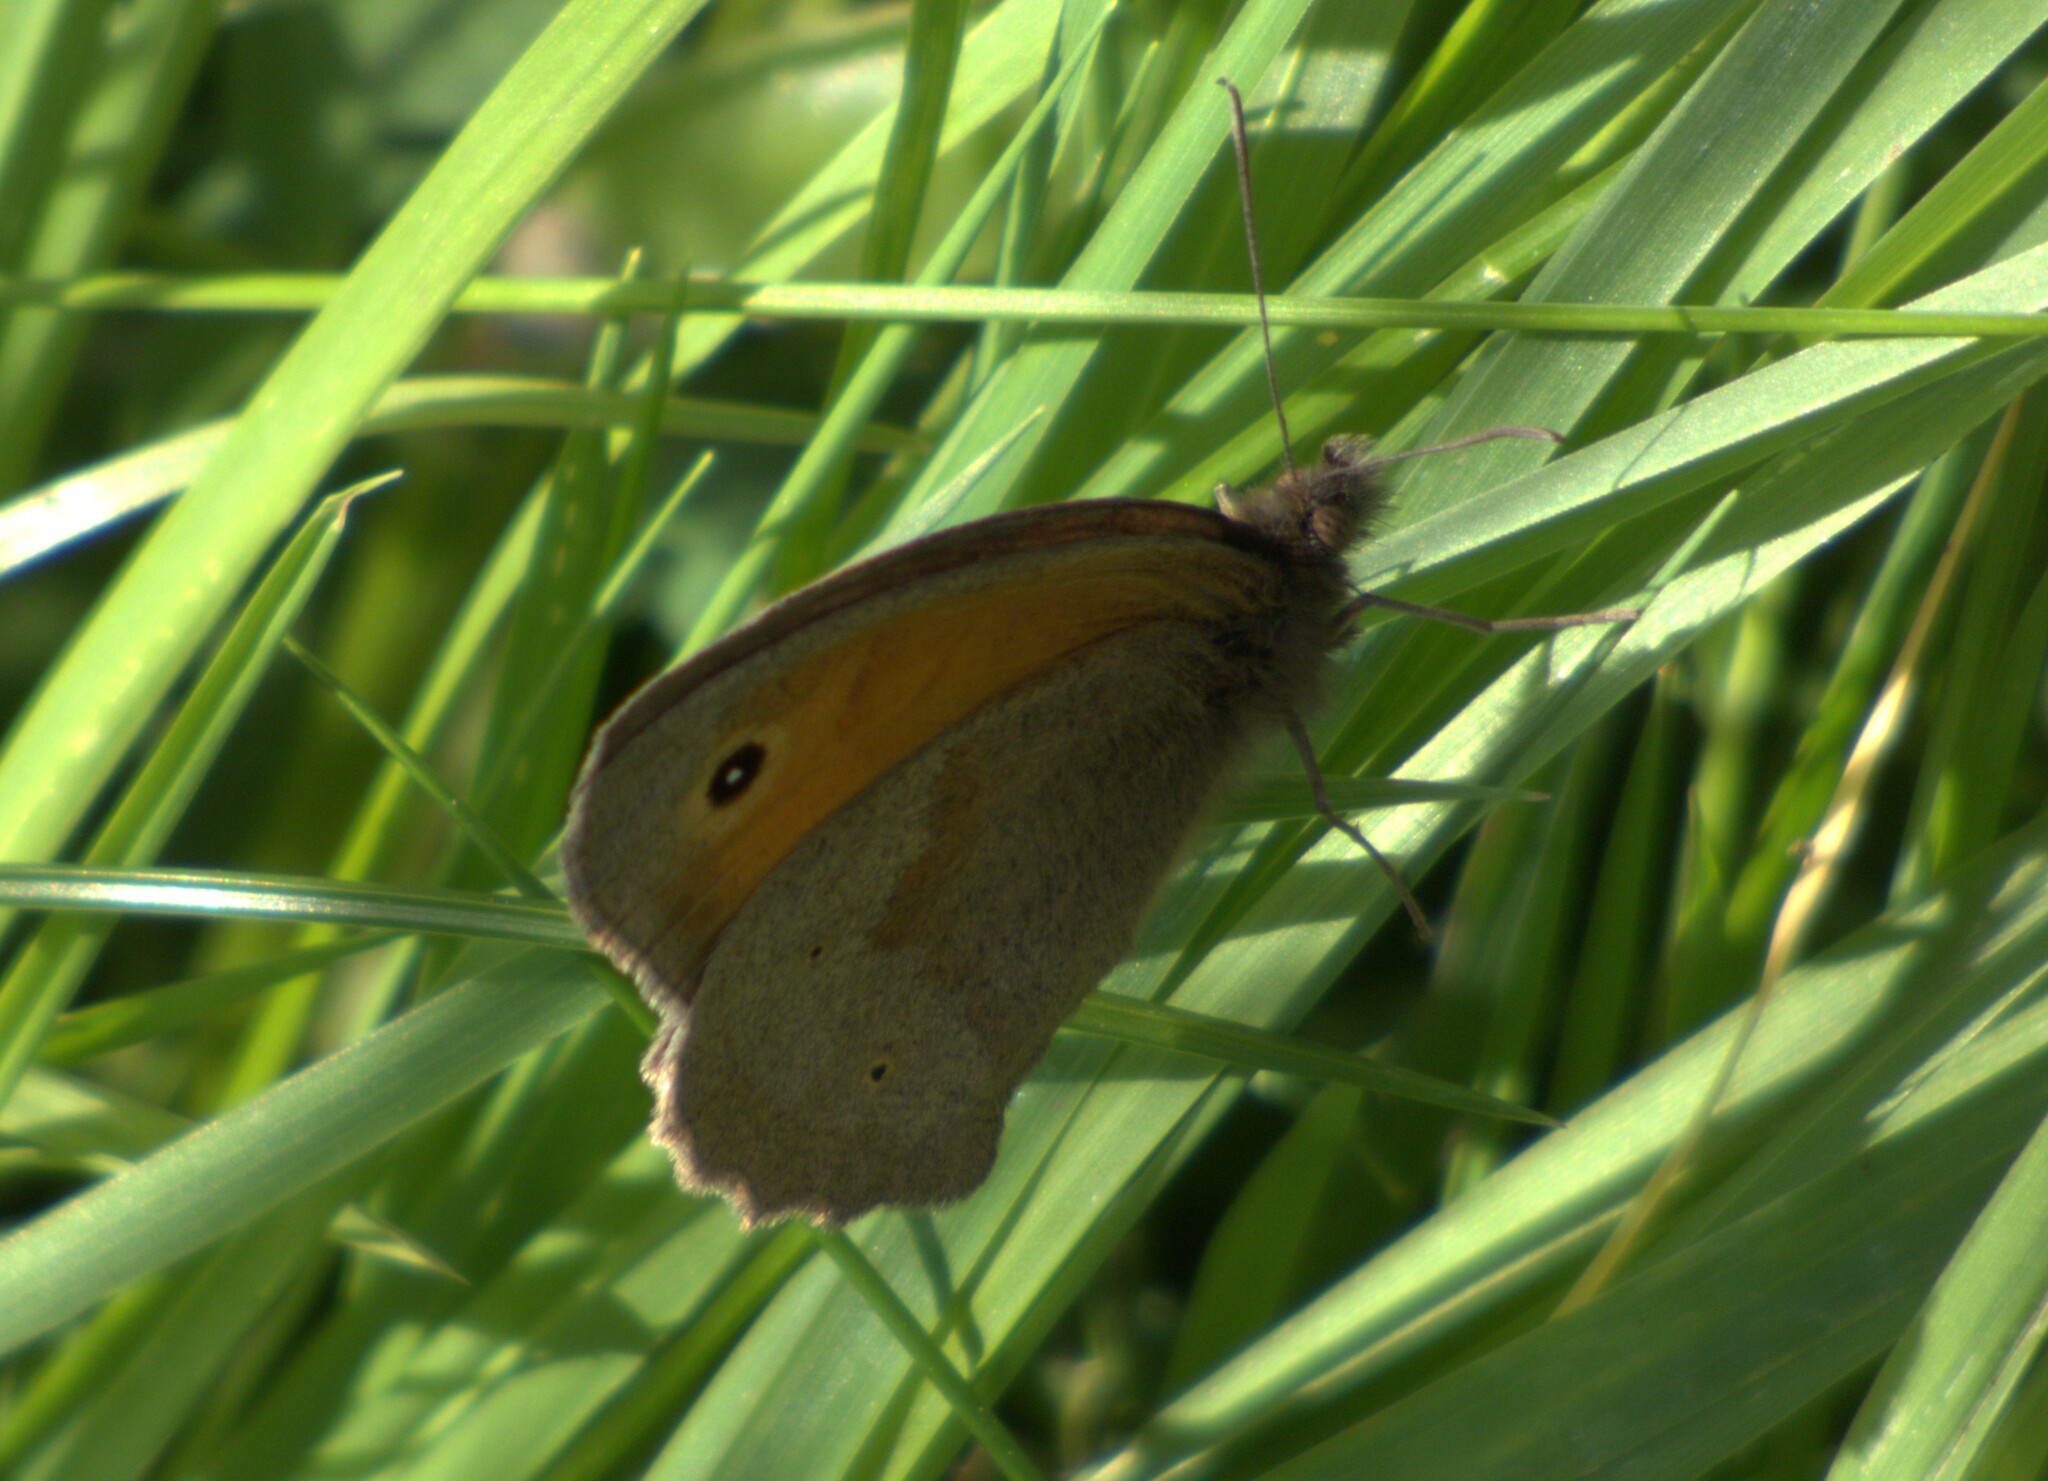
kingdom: Animalia
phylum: Arthropoda
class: Insecta
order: Lepidoptera
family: Nymphalidae
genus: Maniola
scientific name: Maniola jurtina
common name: Meadow brown
